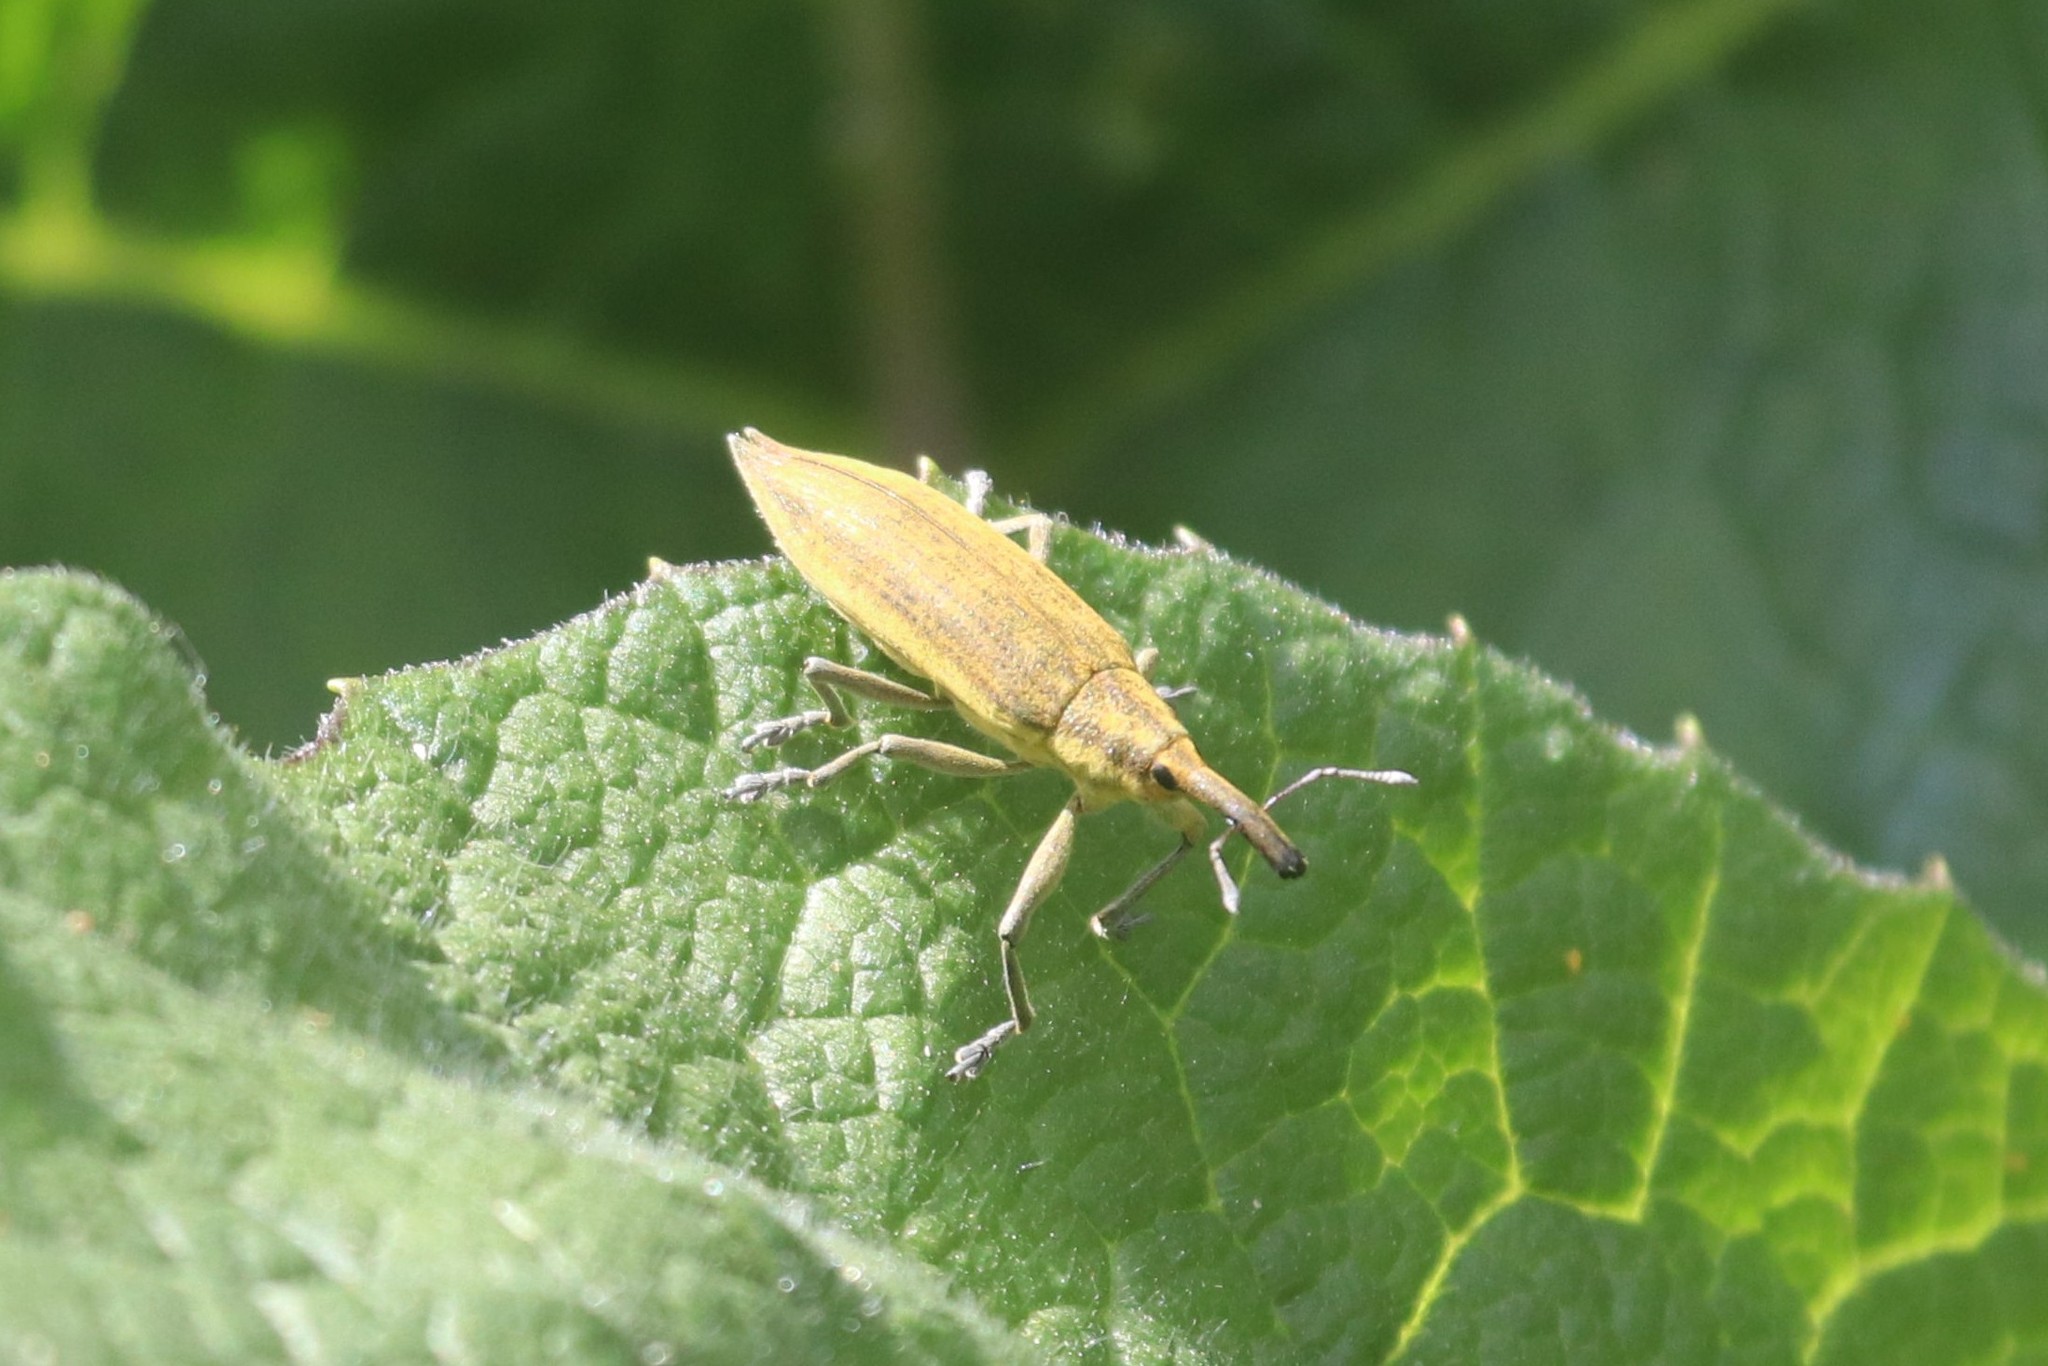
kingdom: Animalia
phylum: Arthropoda
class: Insecta
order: Coleoptera
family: Curculionidae
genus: Lixus
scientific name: Lixus iridis
